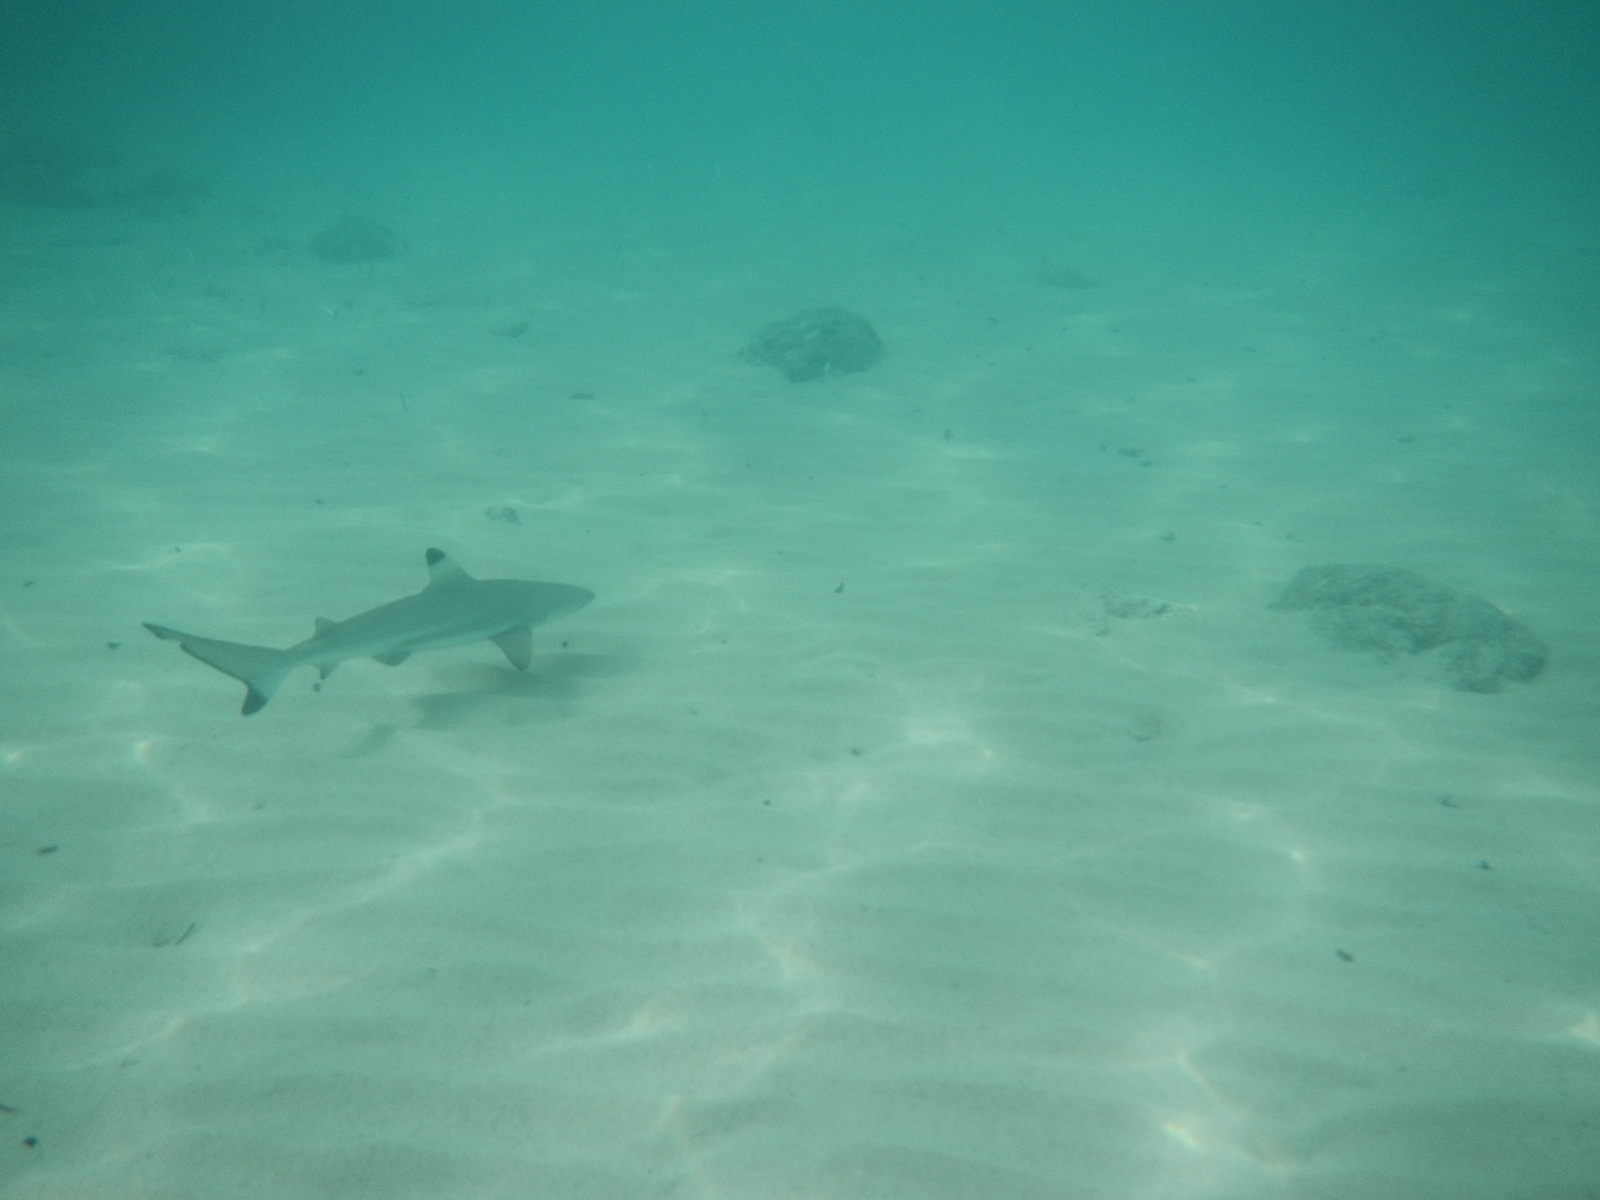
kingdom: Animalia
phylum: Chordata
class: Elasmobranchii
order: Carcharhiniformes
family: Carcharhinidae
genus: Carcharhinus
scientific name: Carcharhinus melanopterus
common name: Blacktip reef shark
